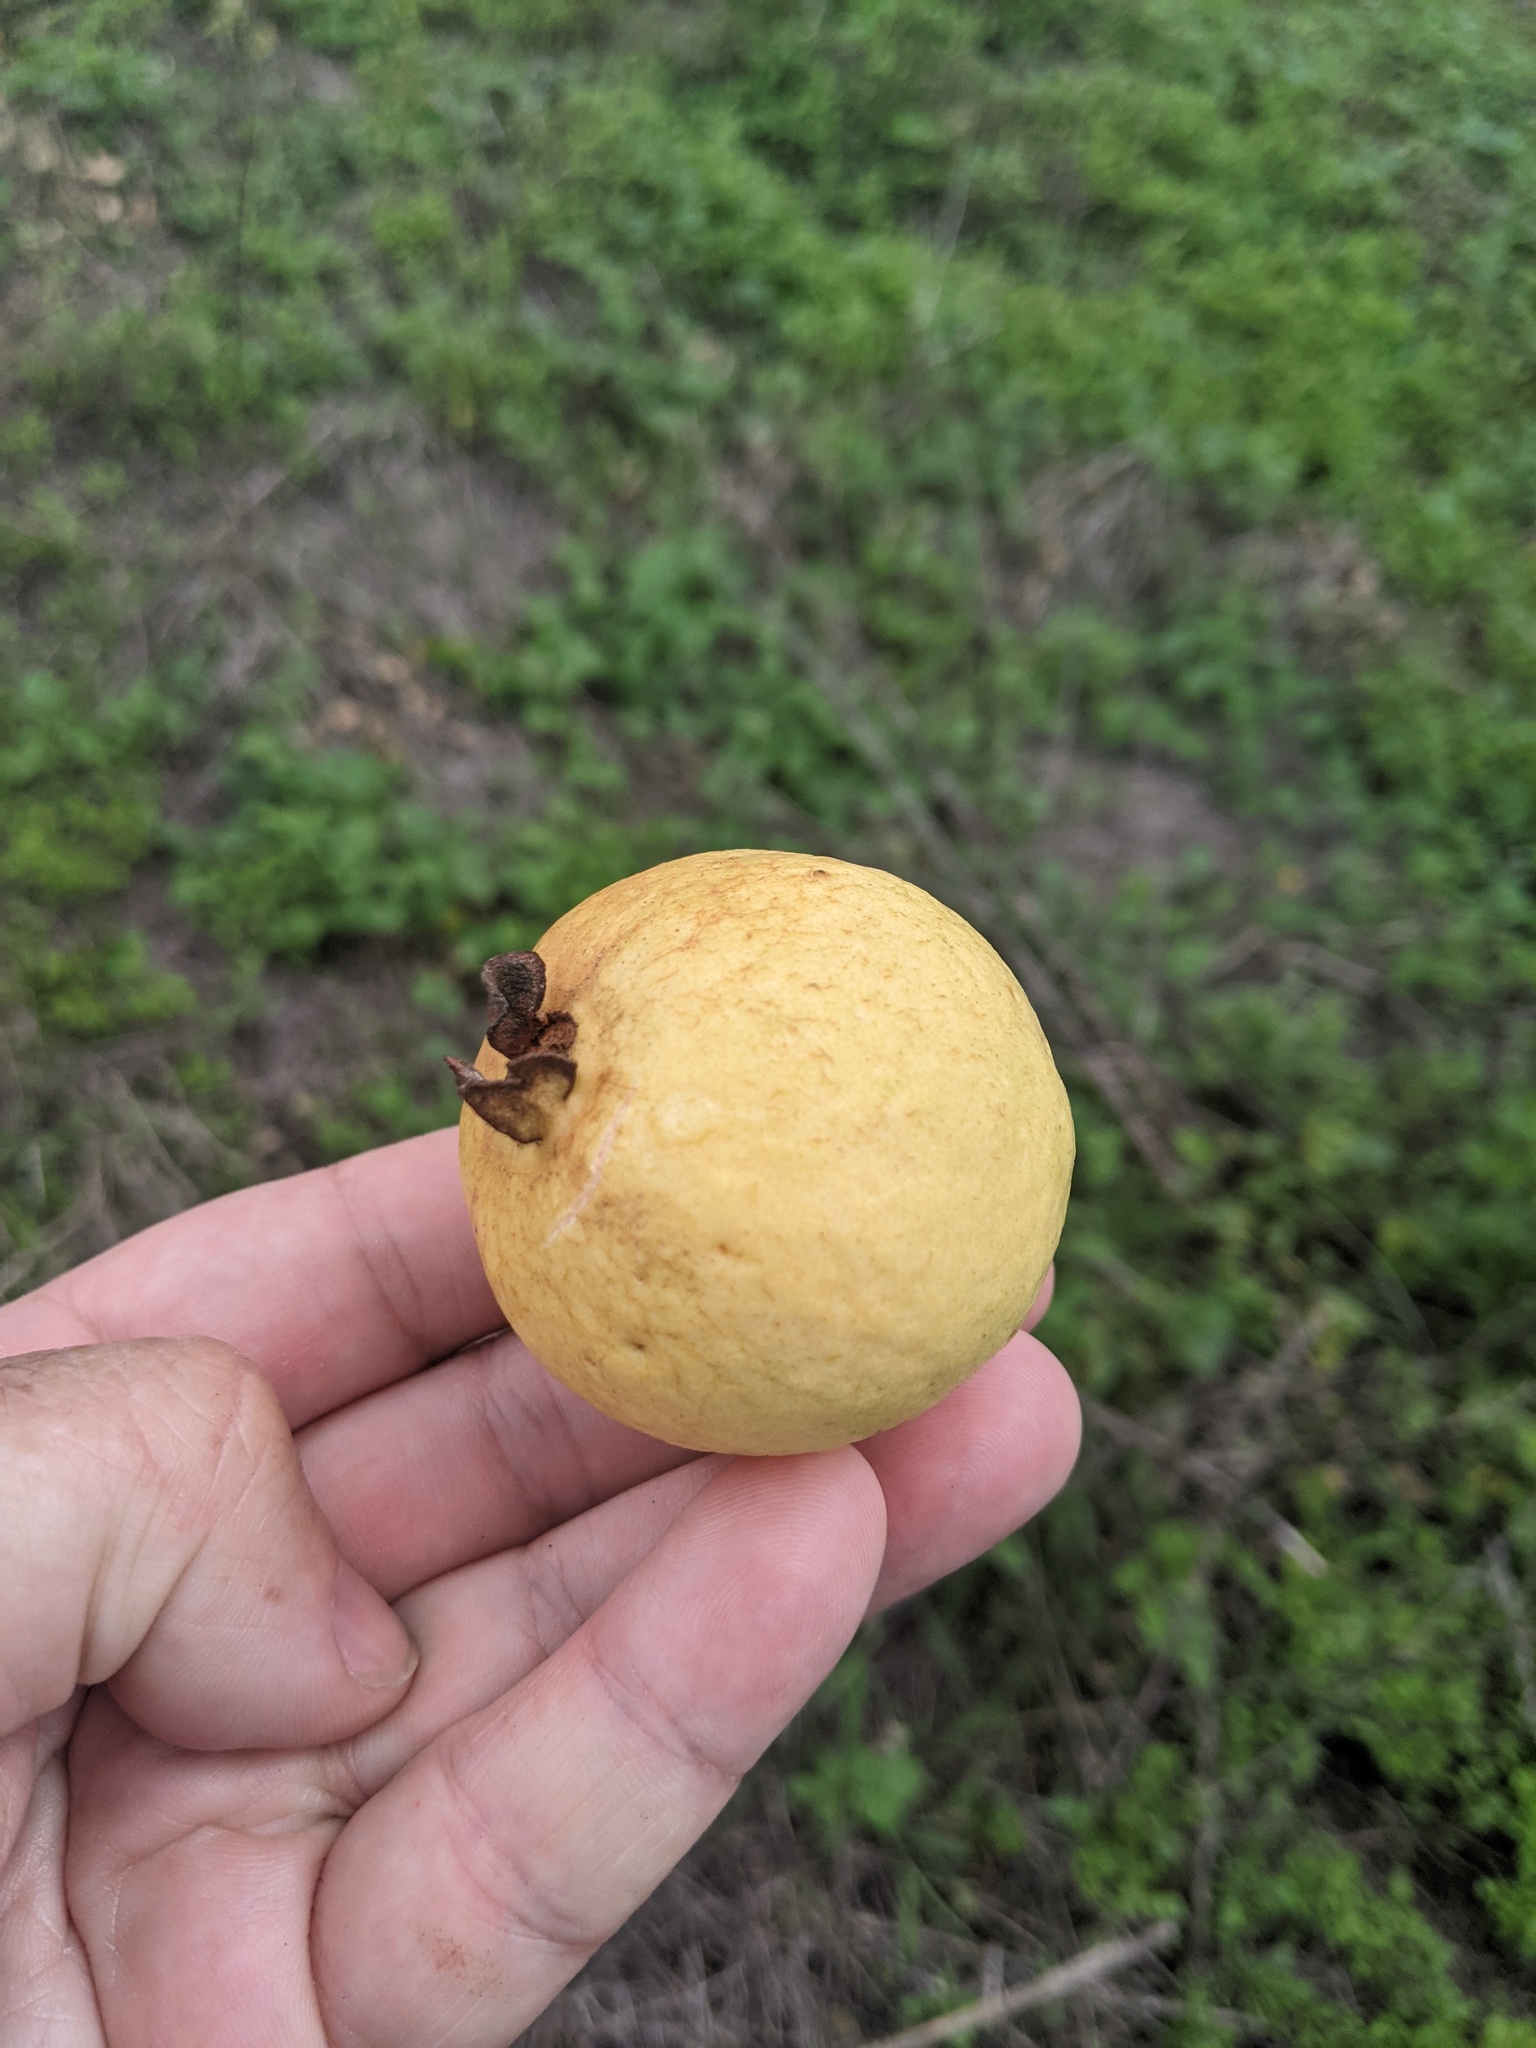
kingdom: Plantae
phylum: Tracheophyta
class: Magnoliopsida
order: Myrtales
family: Myrtaceae
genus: Psidium
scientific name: Psidium guajava
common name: Guava
